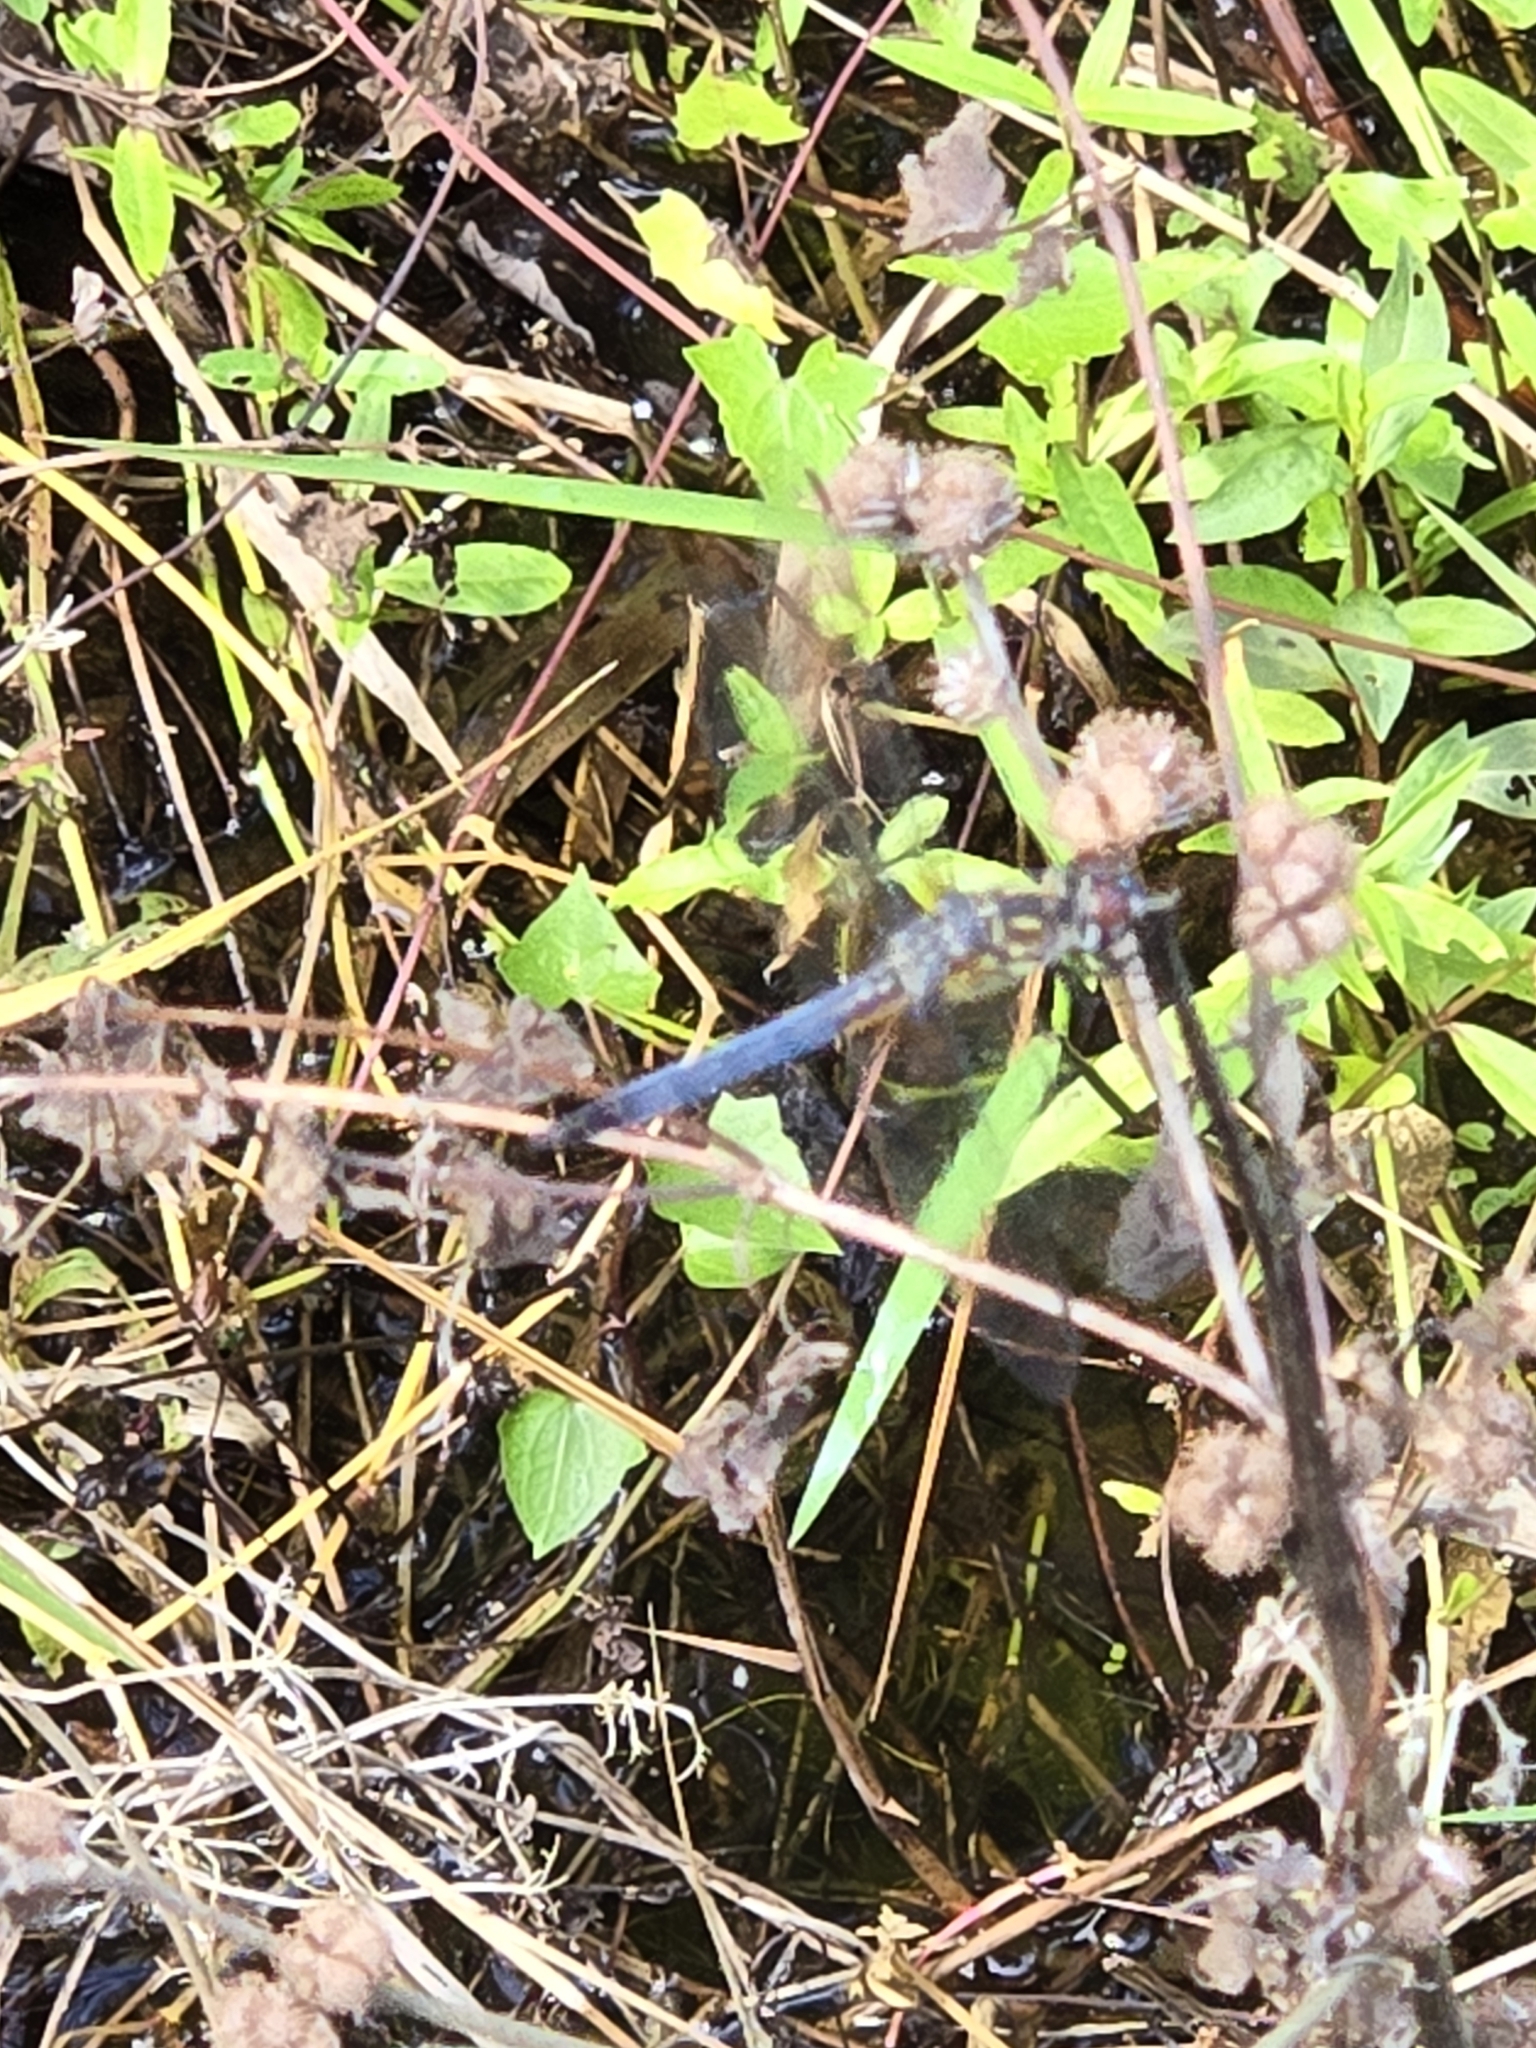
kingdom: Animalia
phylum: Arthropoda
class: Insecta
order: Odonata
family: Libellulidae
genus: Pachydiplax
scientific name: Pachydiplax longipennis
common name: Blue dasher
